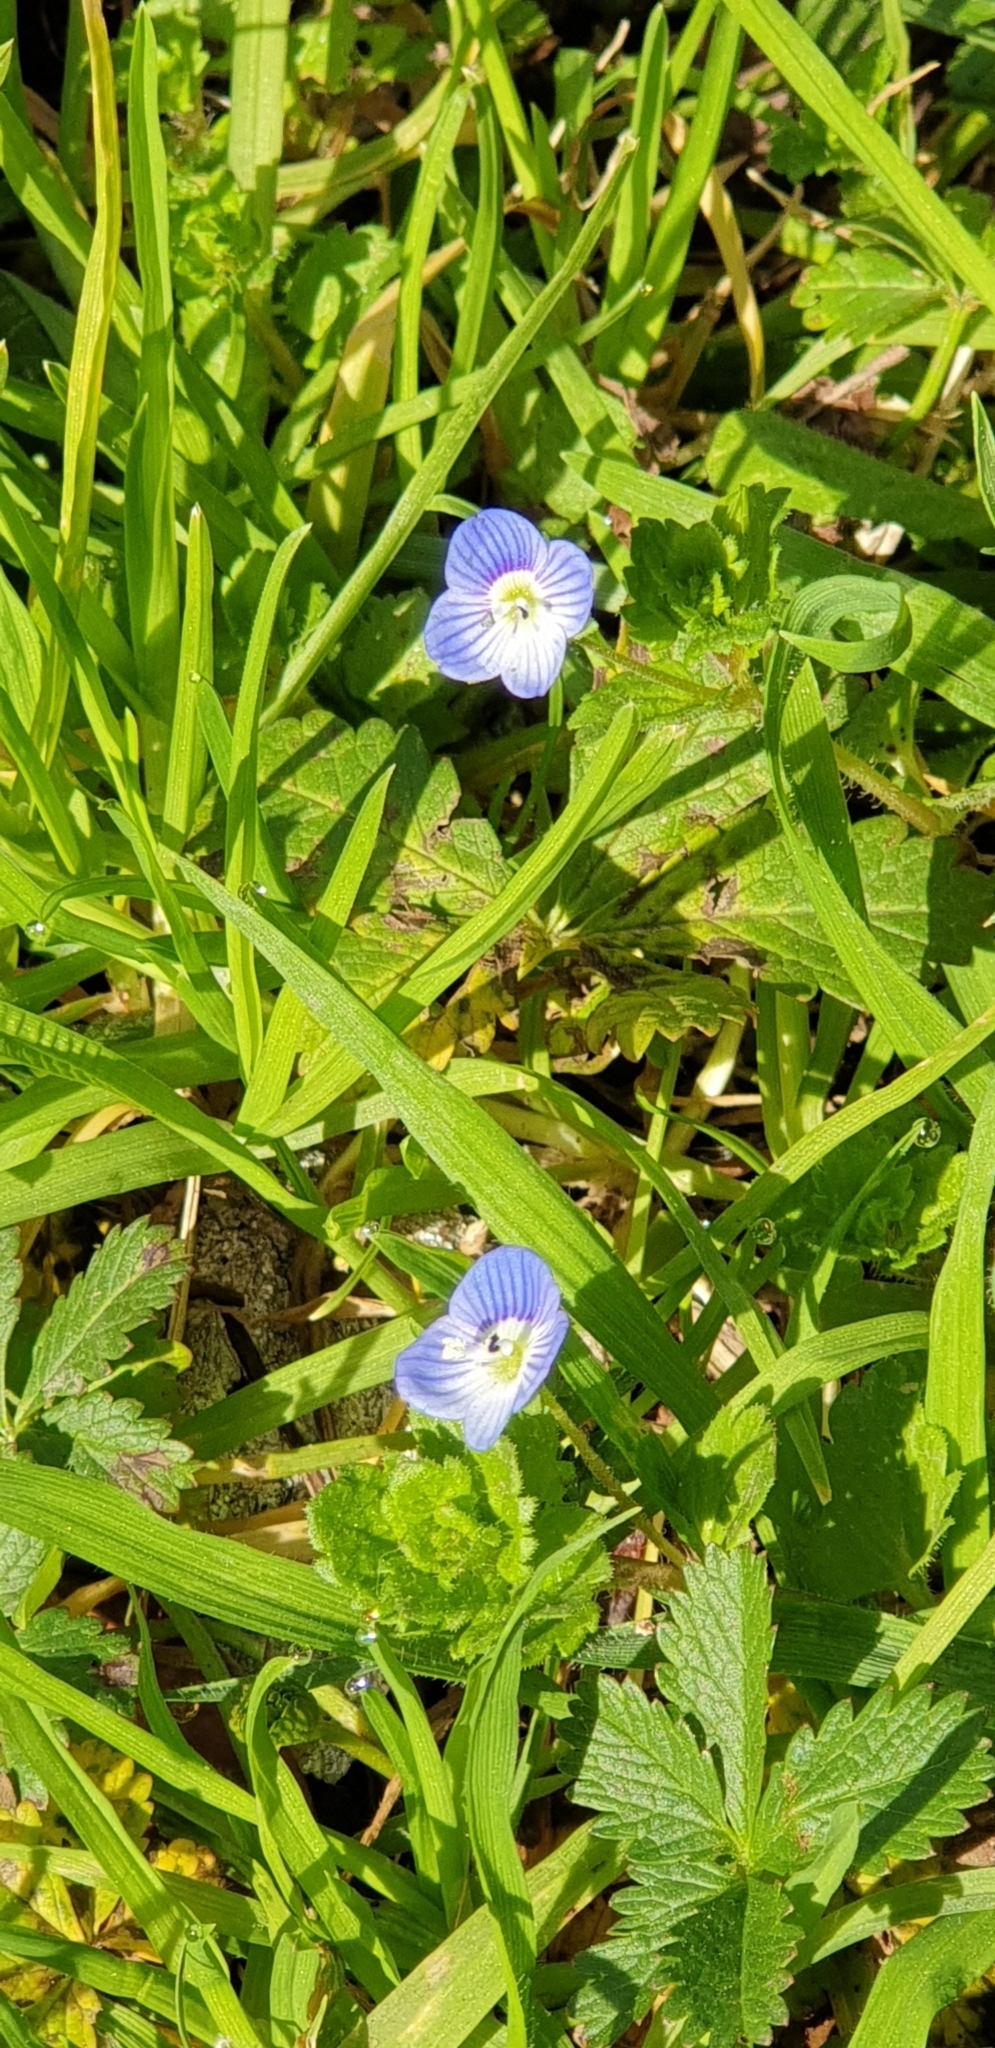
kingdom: Plantae
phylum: Tracheophyta
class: Magnoliopsida
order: Lamiales
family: Plantaginaceae
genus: Veronica
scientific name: Veronica persica
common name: Common field-speedwell
